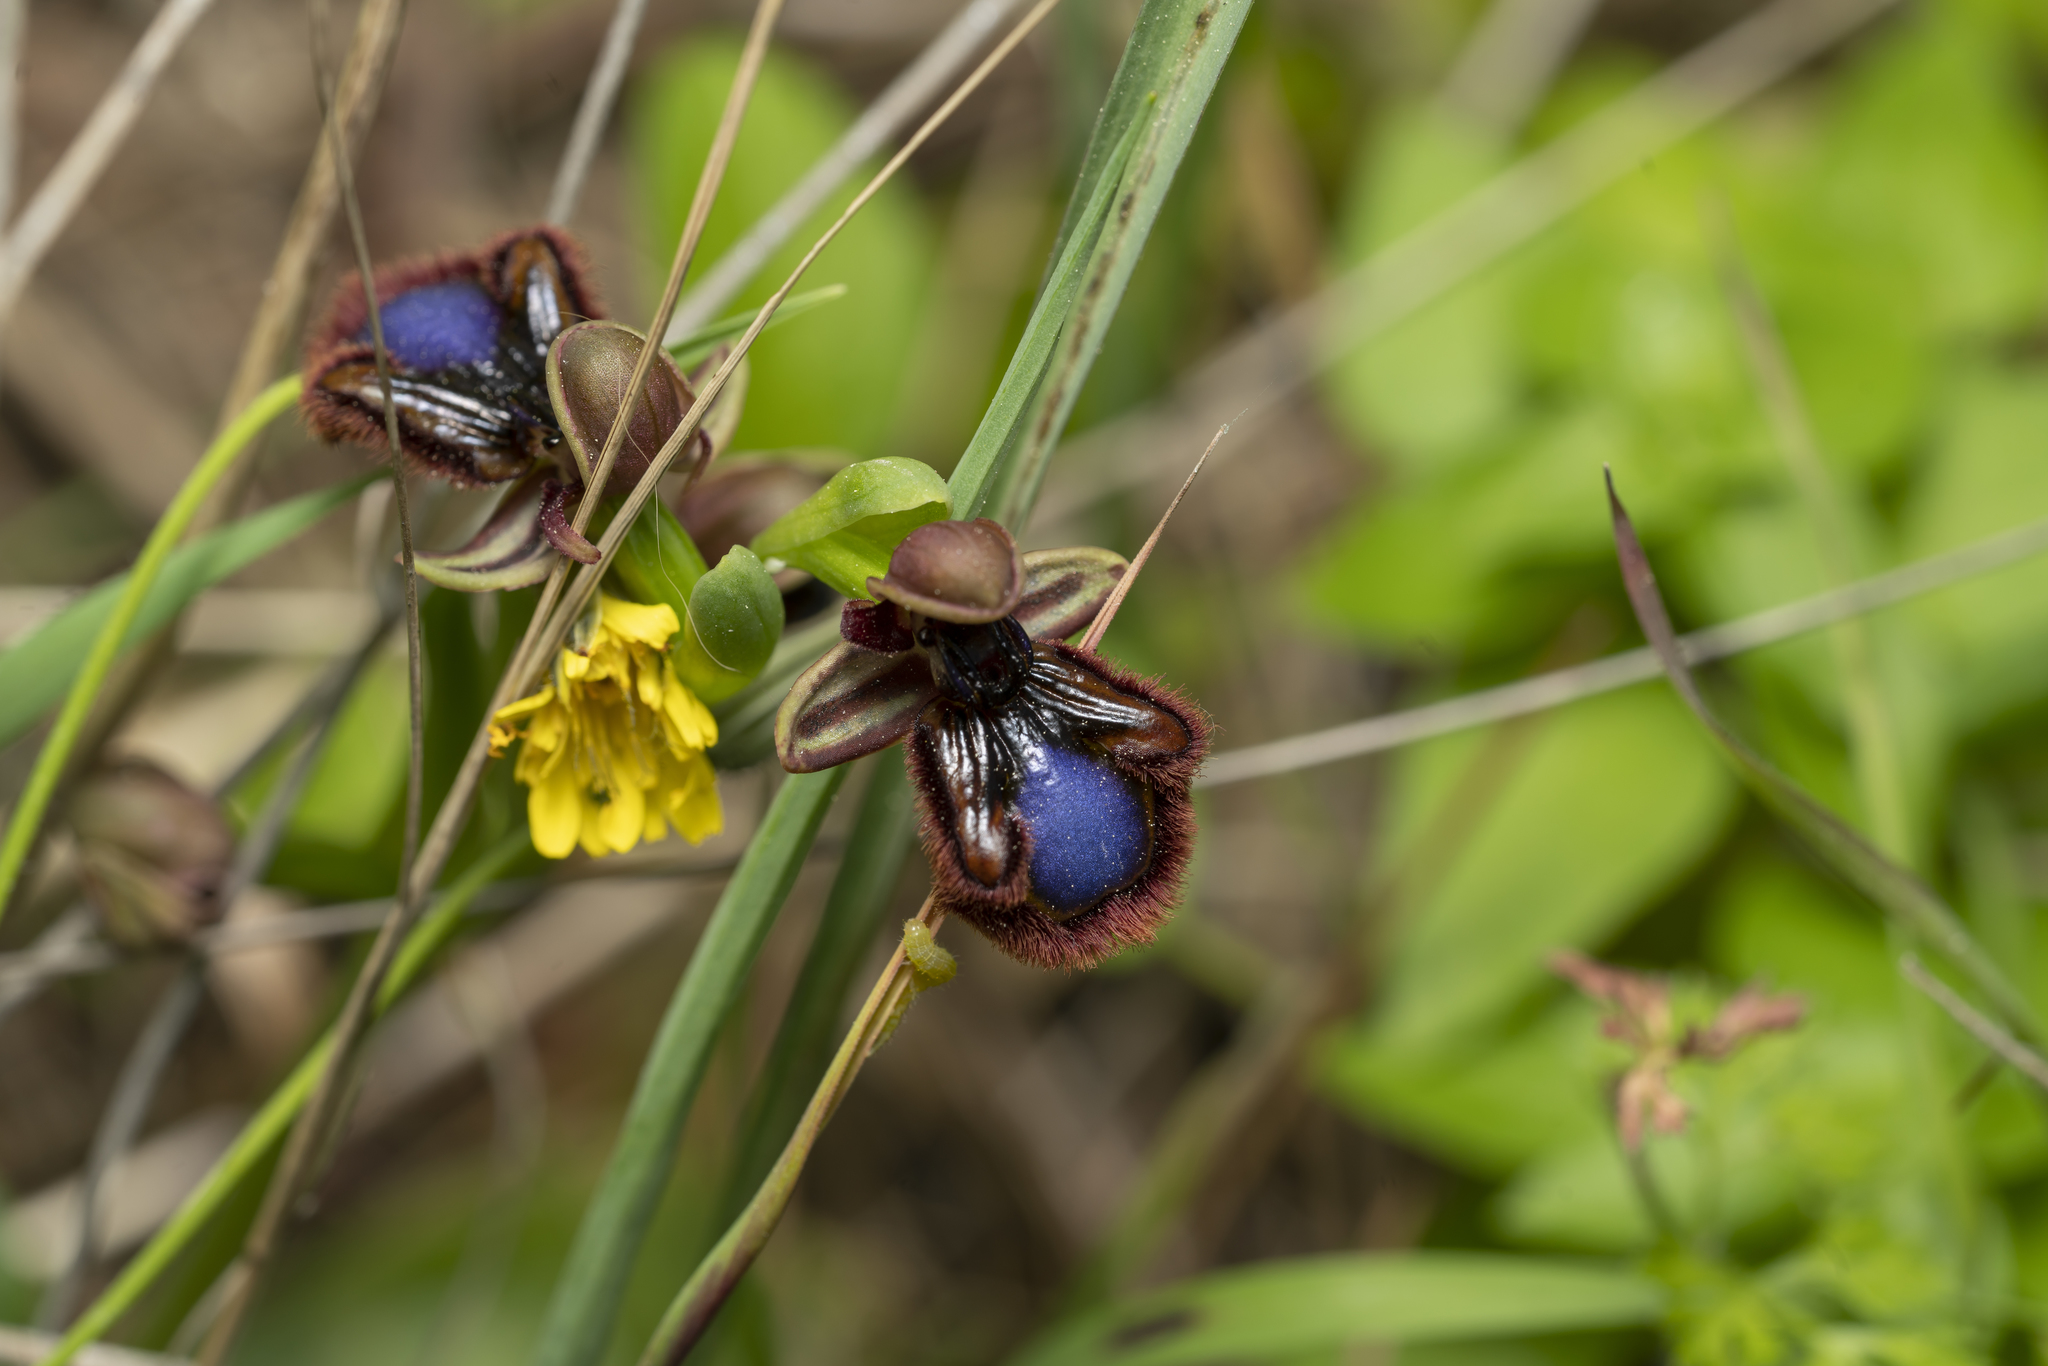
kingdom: Plantae
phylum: Tracheophyta
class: Liliopsida
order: Asparagales
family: Orchidaceae
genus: Ophrys
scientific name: Ophrys speculum
